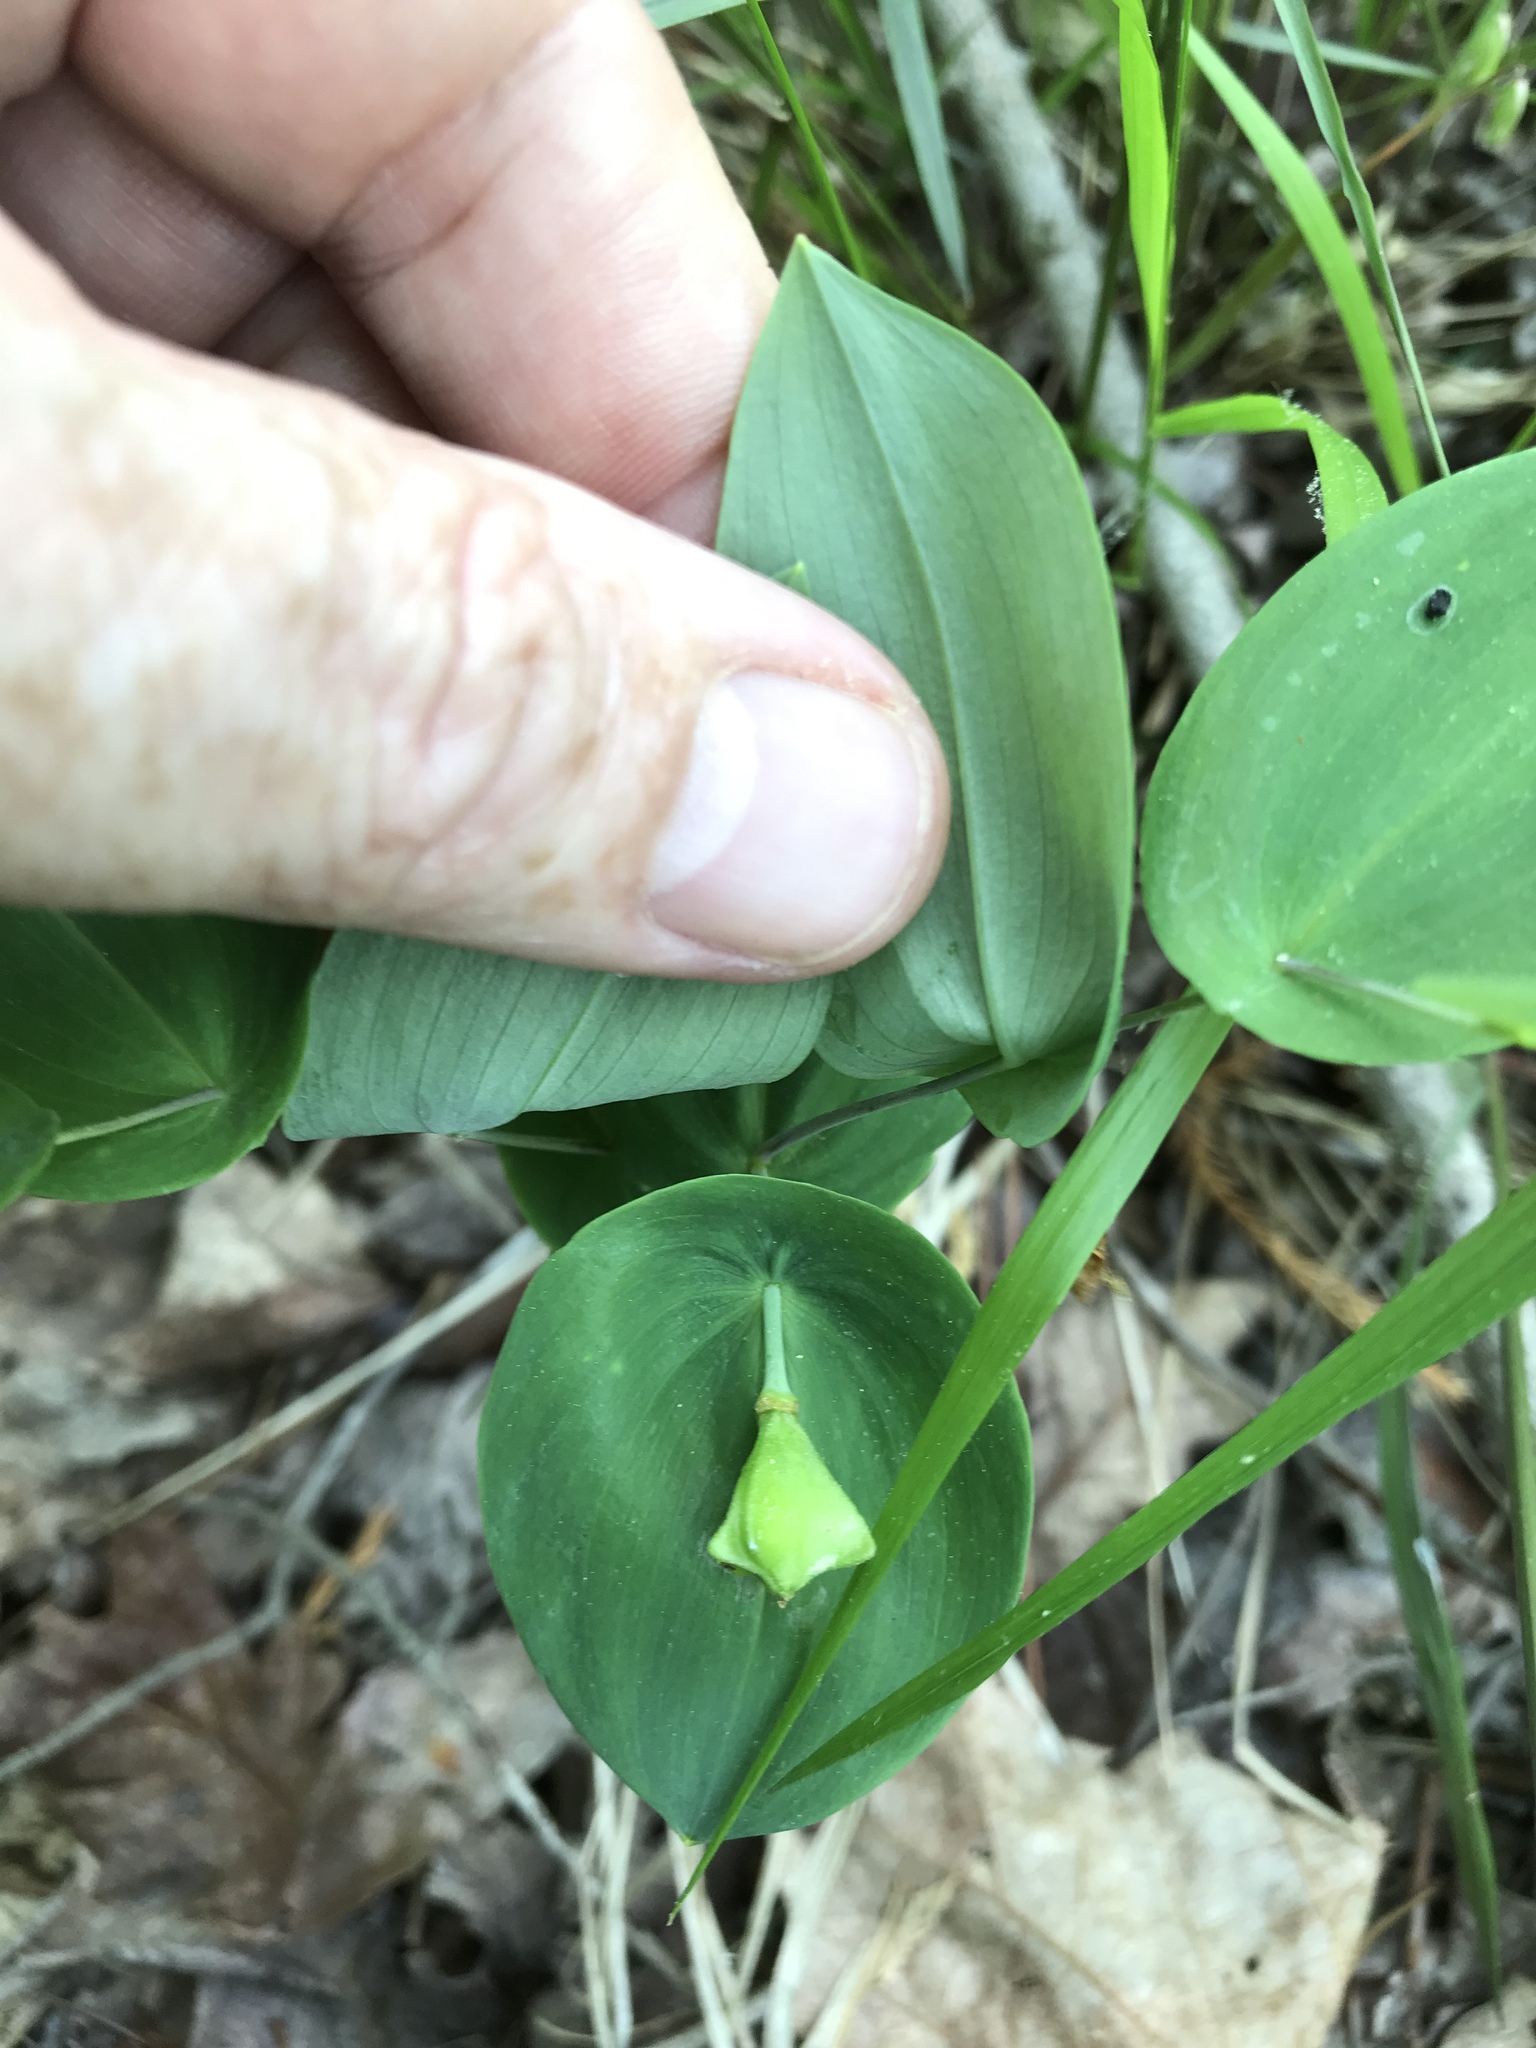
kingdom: Plantae
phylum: Tracheophyta
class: Liliopsida
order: Liliales
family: Colchicaceae
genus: Uvularia
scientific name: Uvularia perfoliata
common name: Perfoliate bellwort
